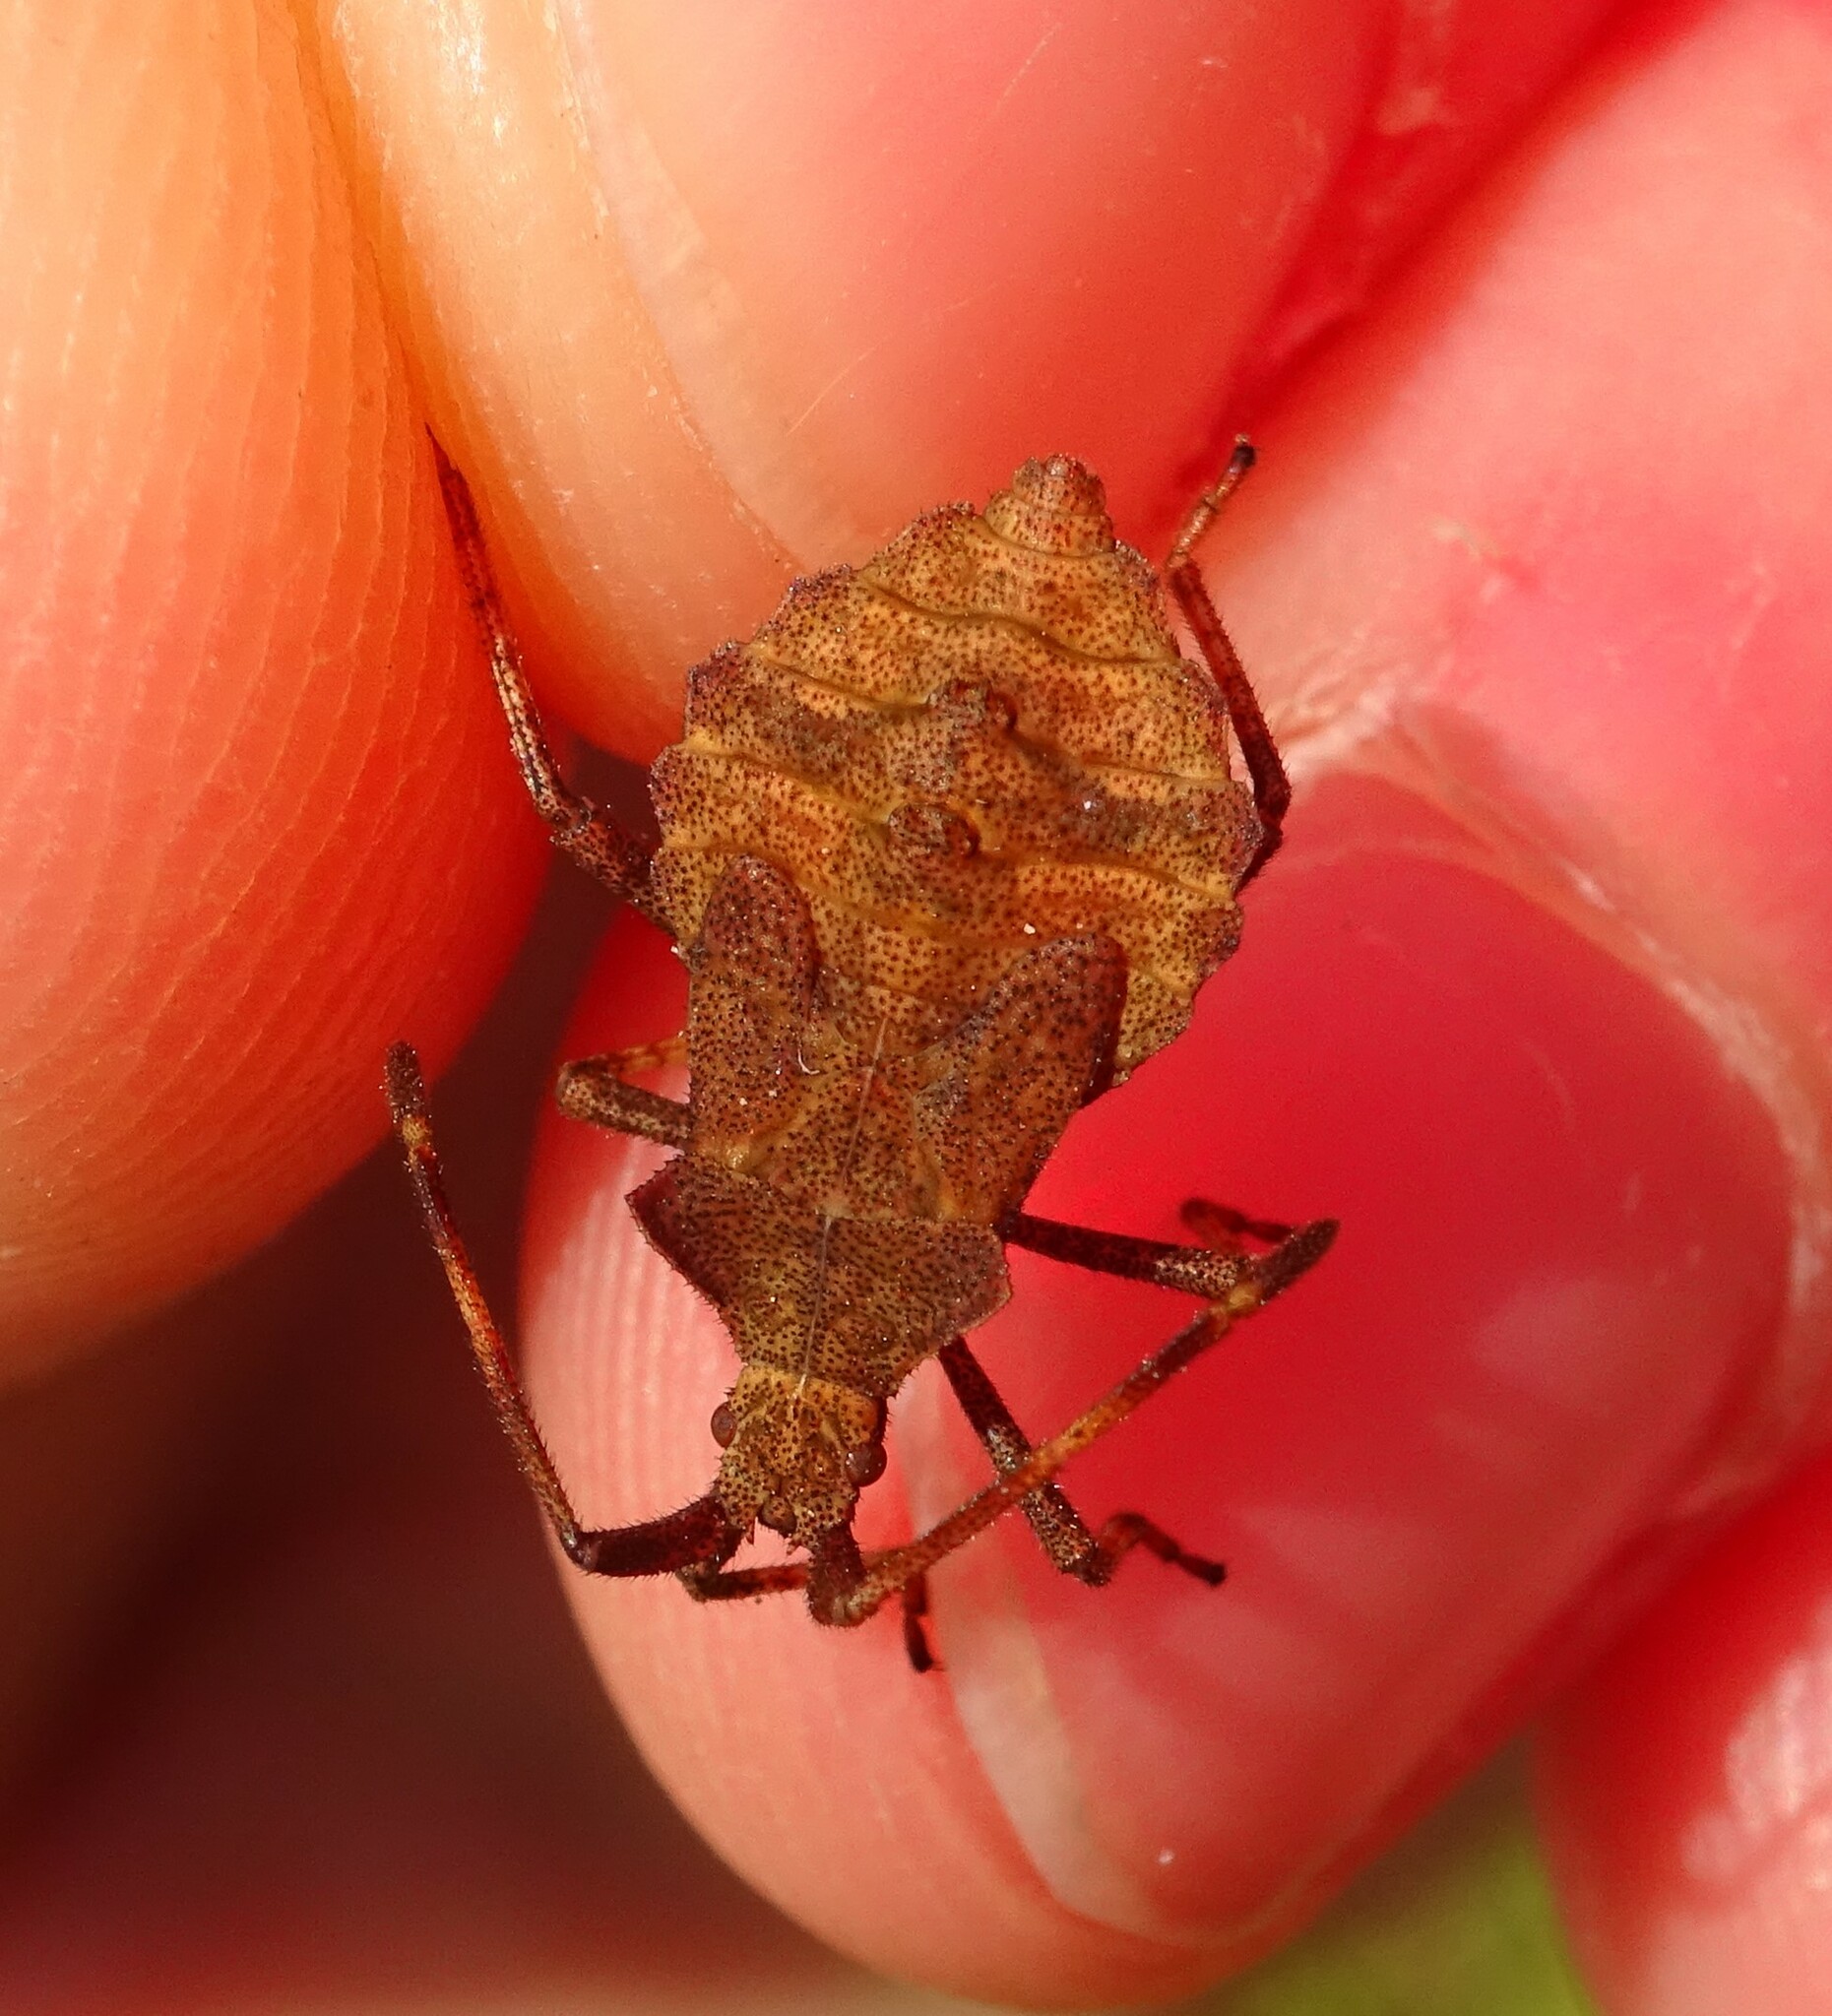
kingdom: Animalia
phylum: Arthropoda
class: Insecta
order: Hemiptera
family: Coreidae
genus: Coreus
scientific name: Coreus marginatus
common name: Dock bug
